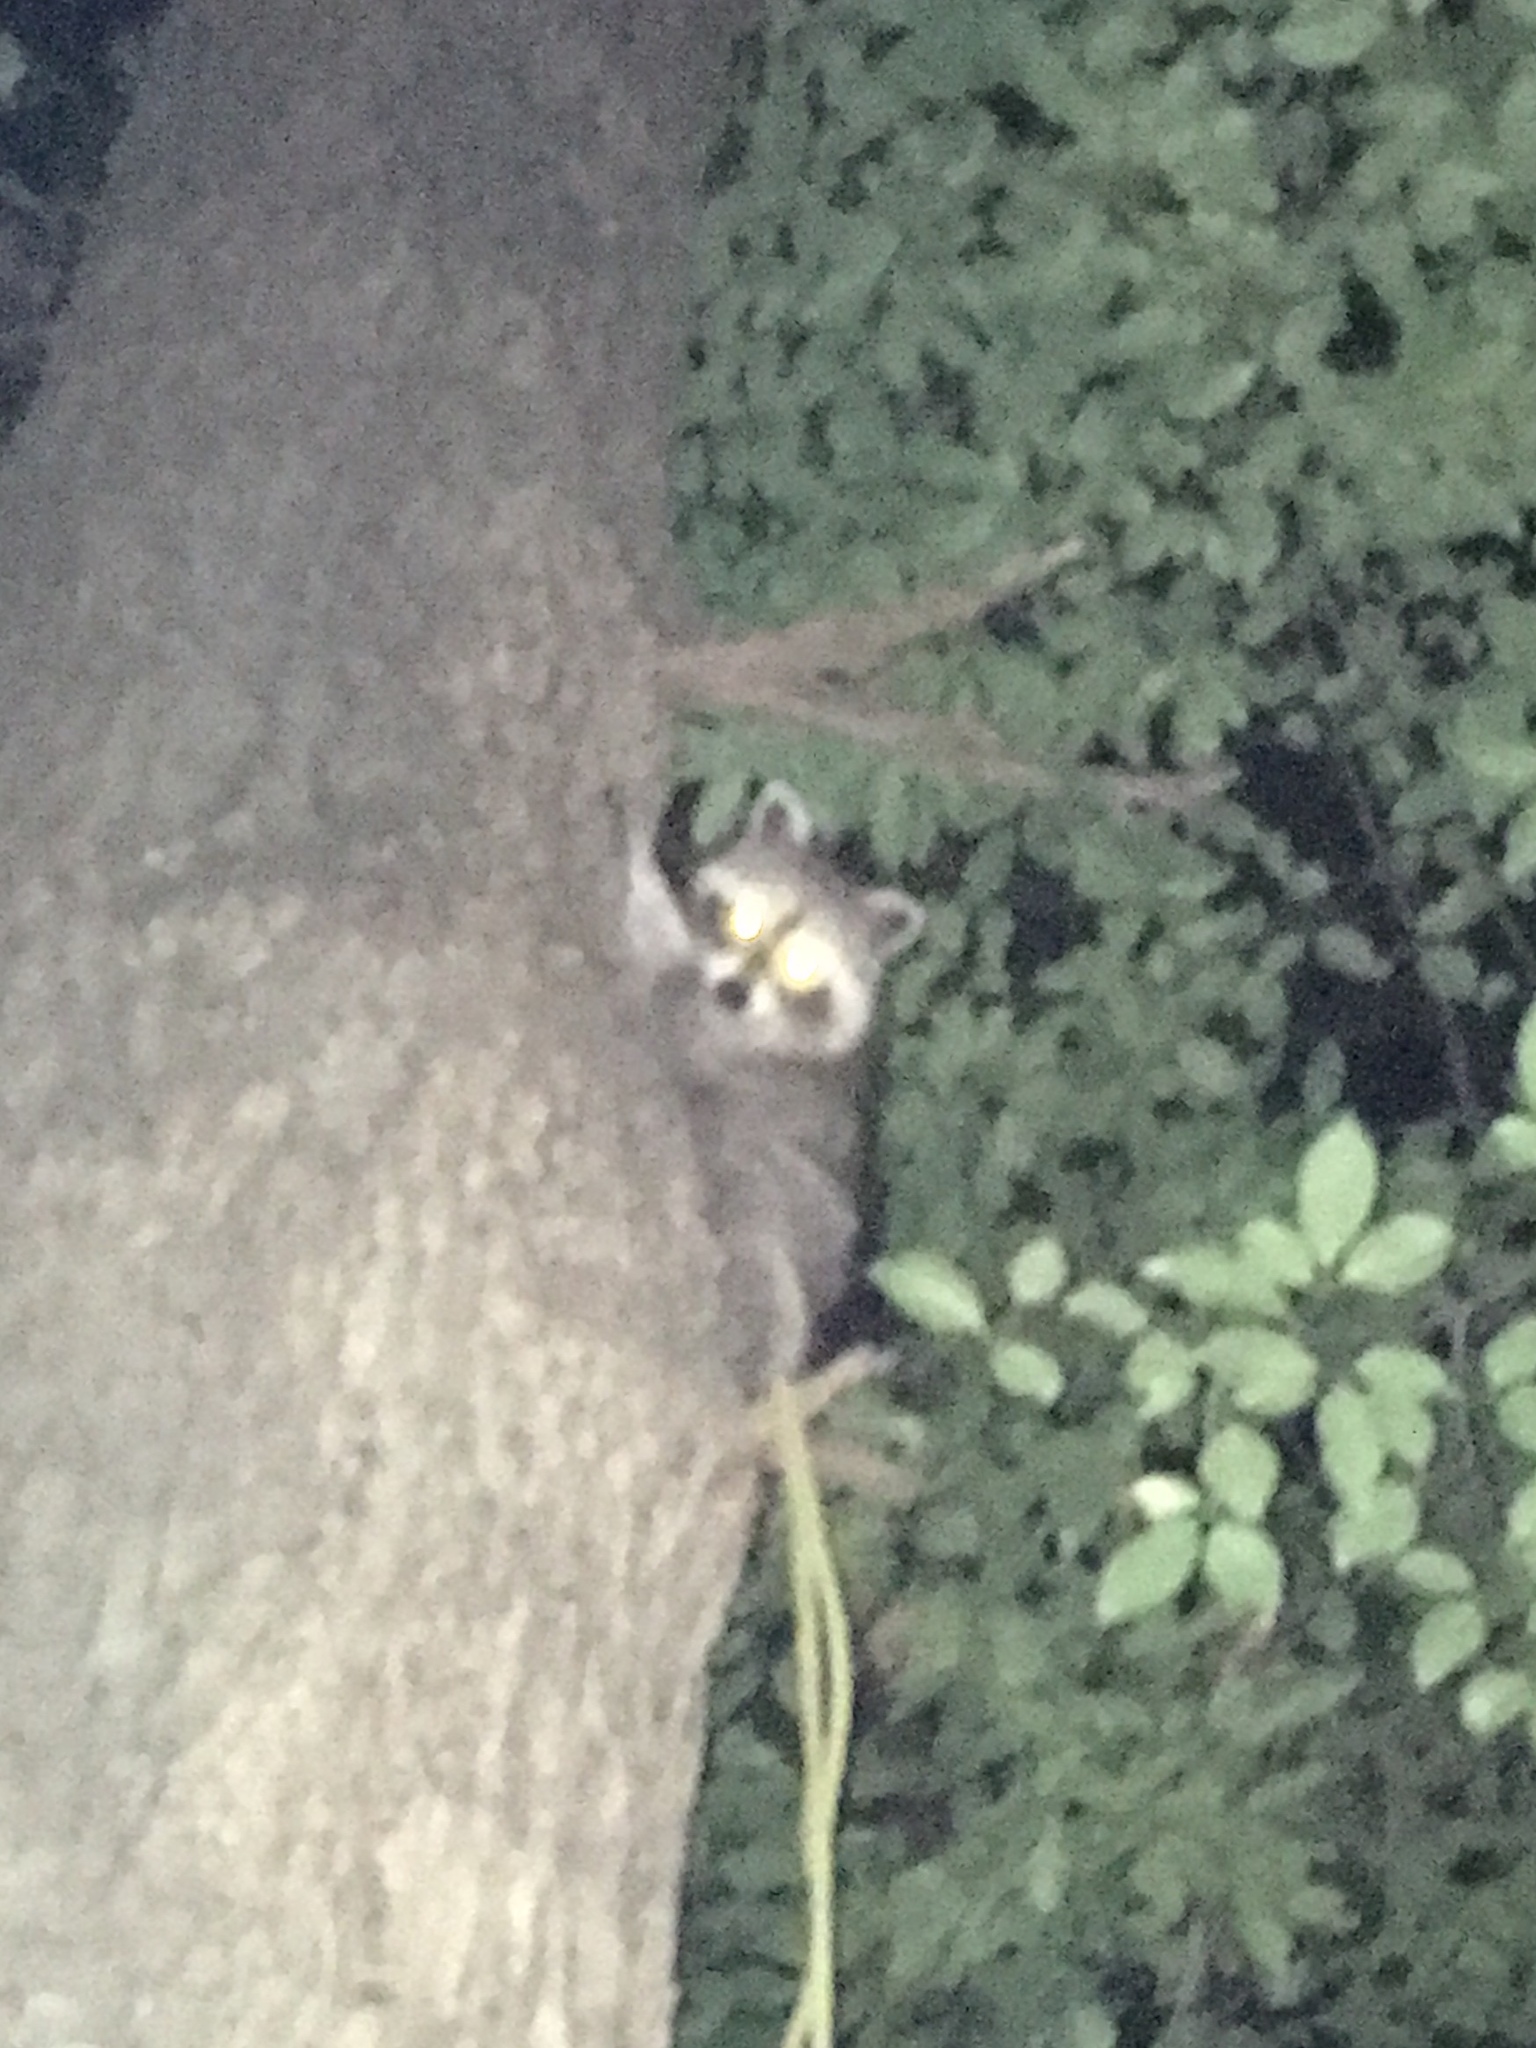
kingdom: Animalia
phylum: Chordata
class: Mammalia
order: Carnivora
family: Procyonidae
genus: Procyon
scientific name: Procyon lotor
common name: Raccoon
